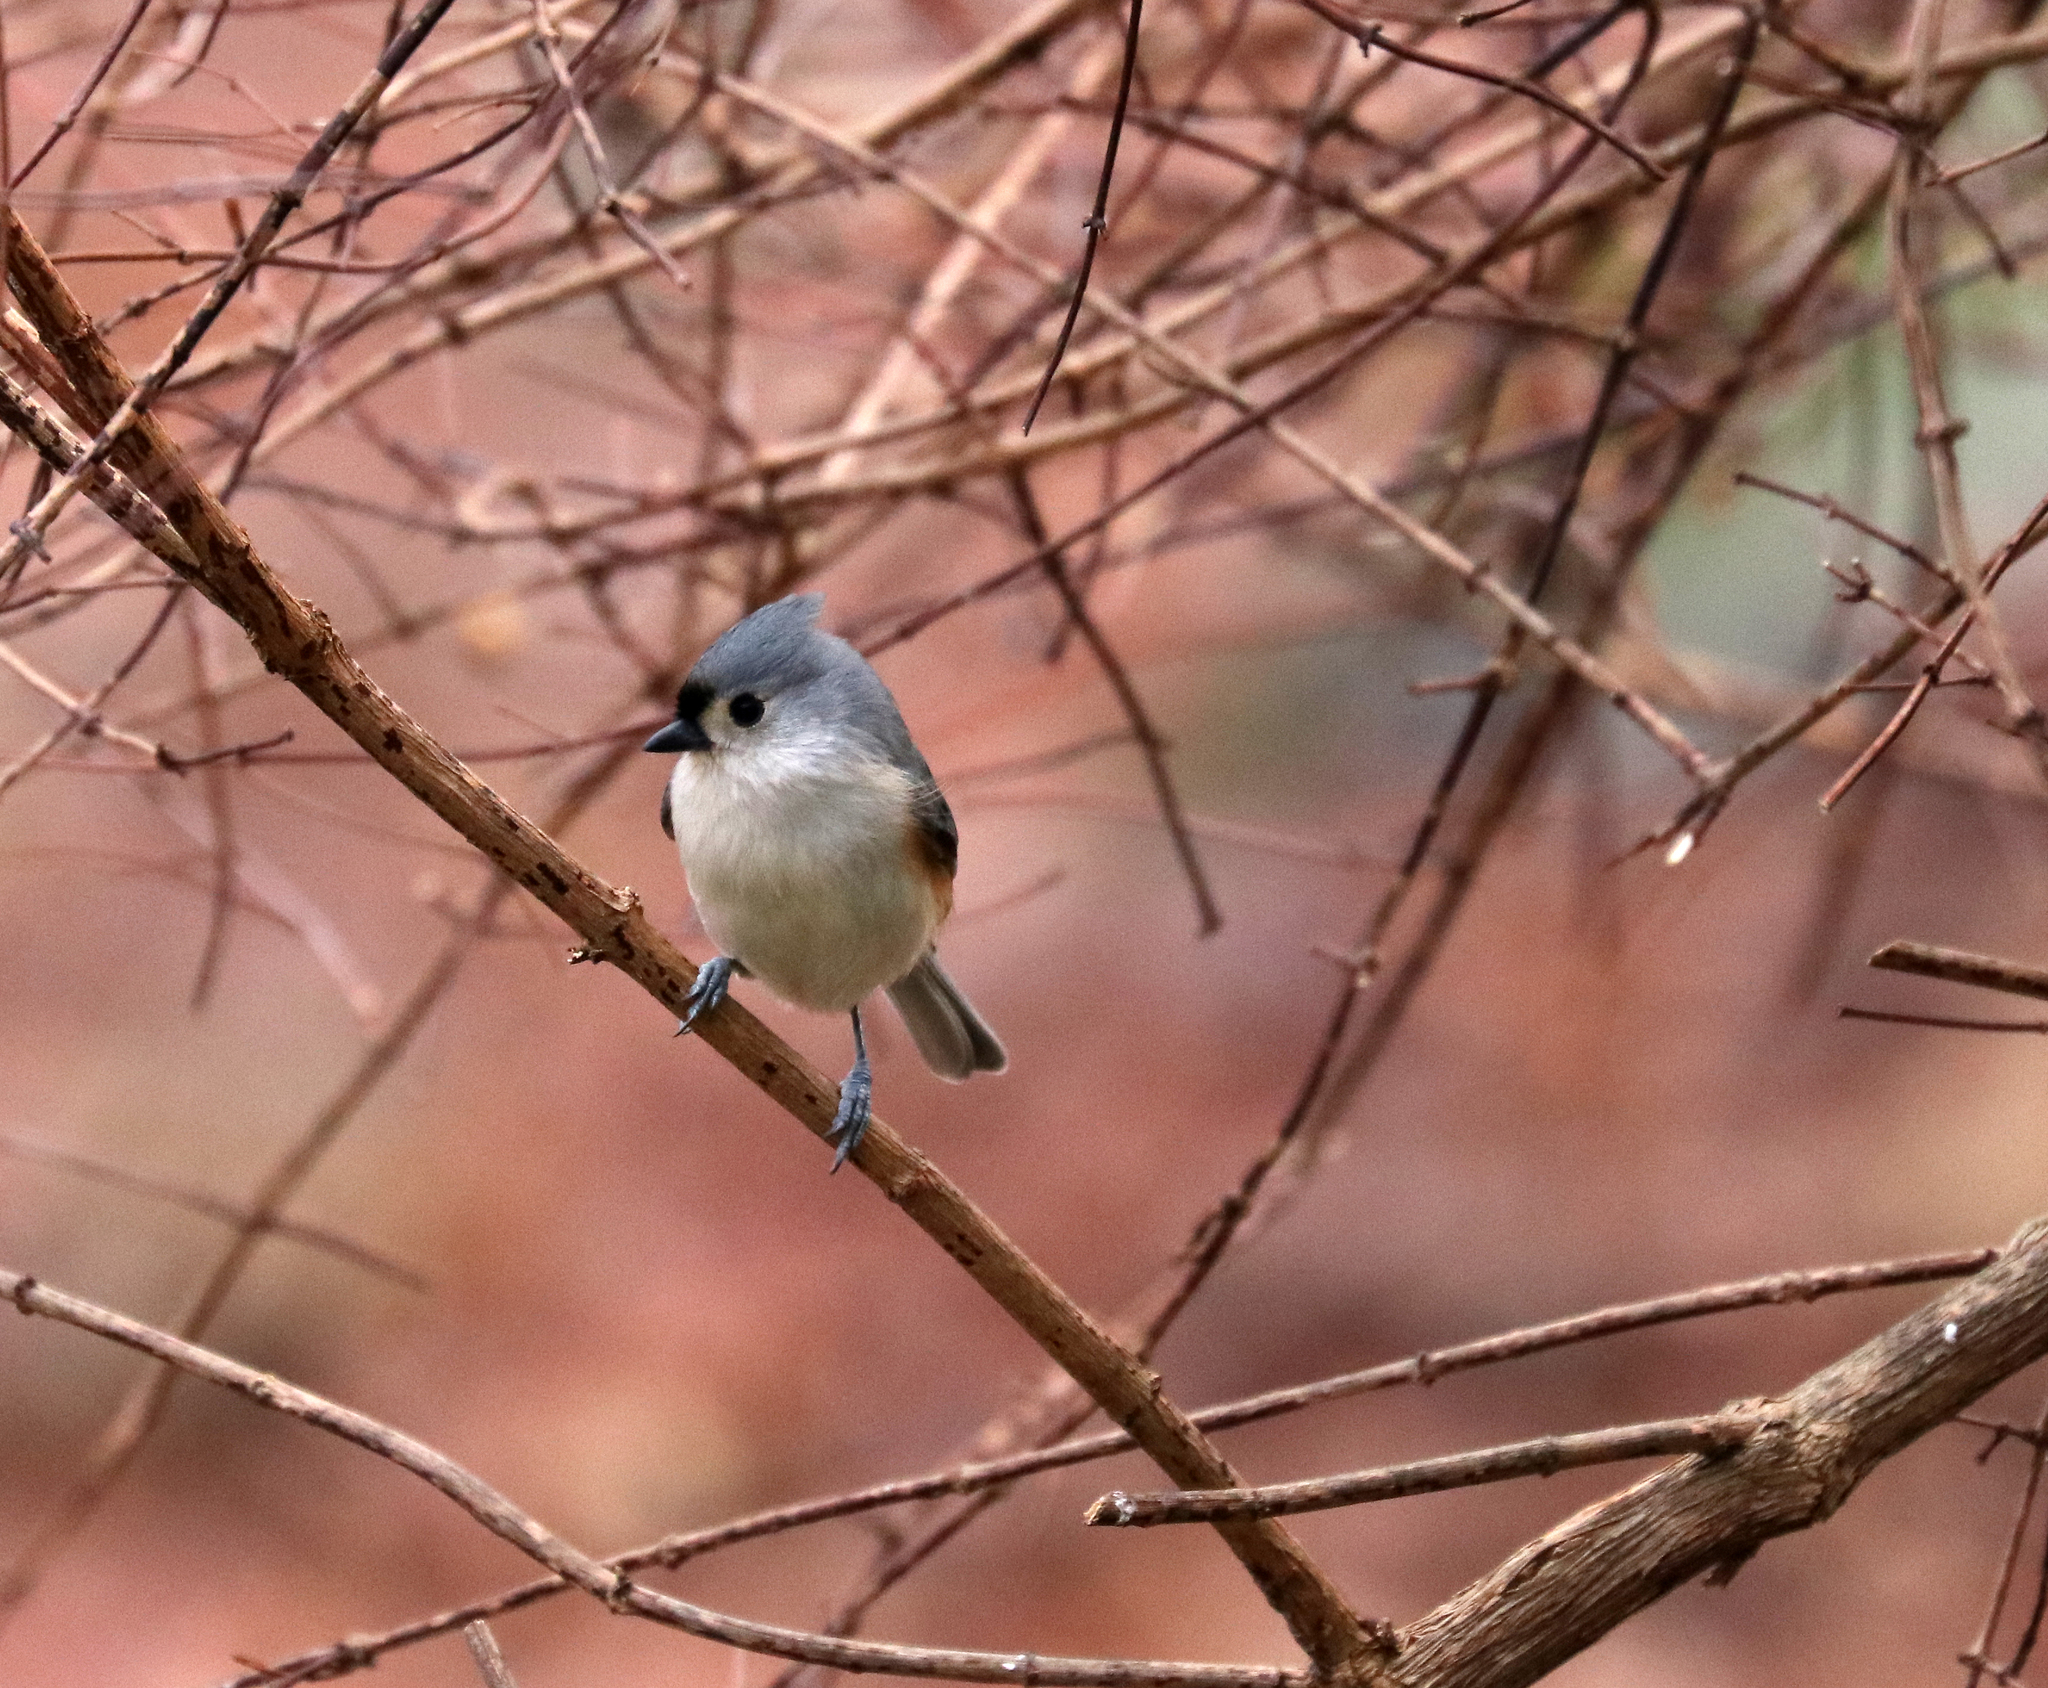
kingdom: Animalia
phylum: Chordata
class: Aves
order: Passeriformes
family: Paridae
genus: Baeolophus
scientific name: Baeolophus bicolor
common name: Tufted titmouse
